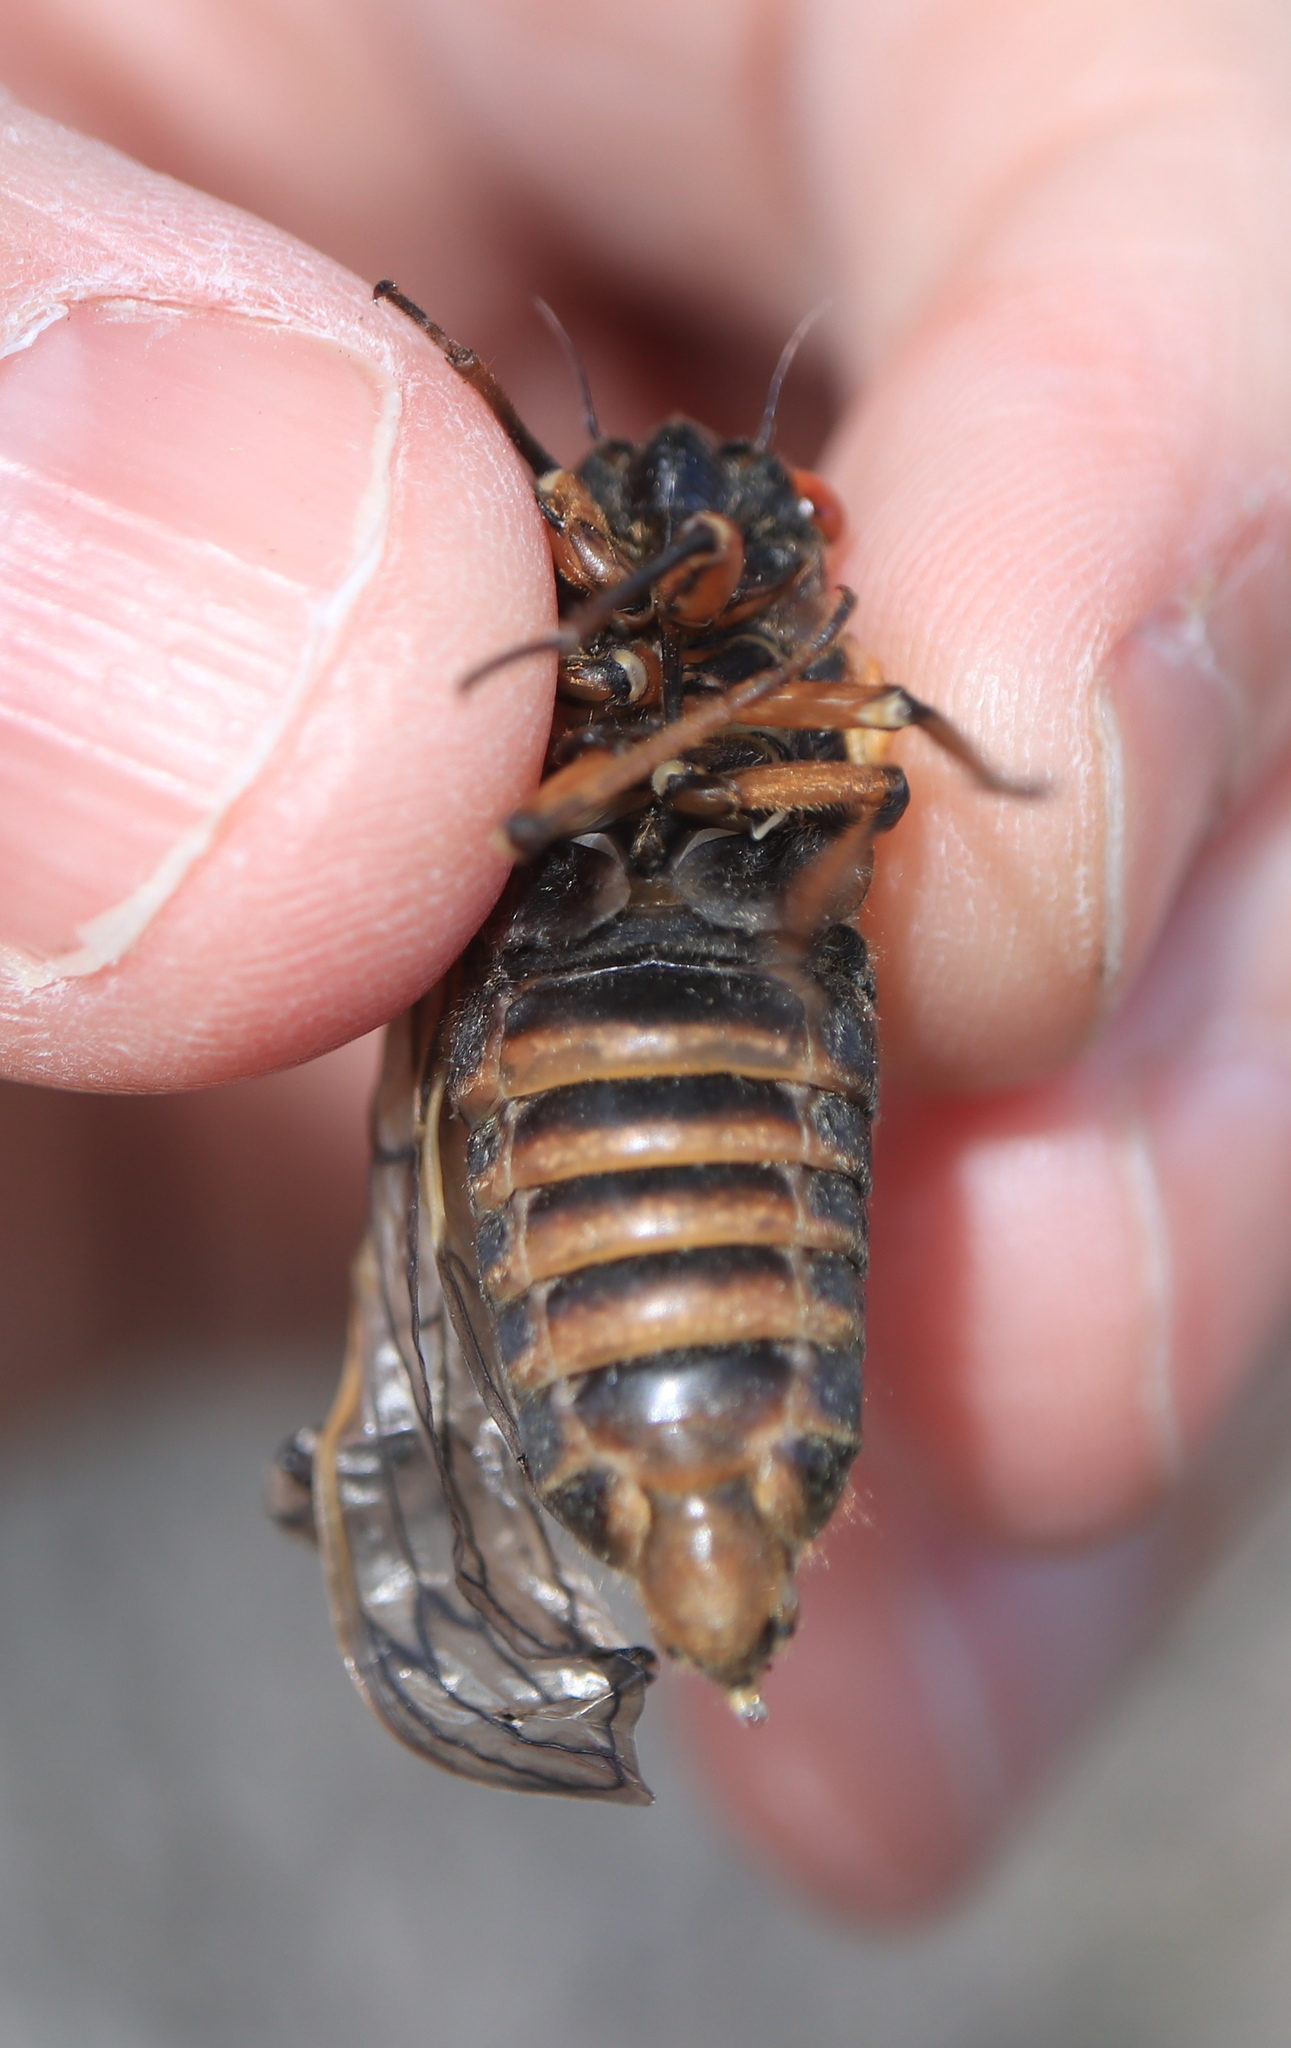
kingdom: Animalia
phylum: Arthropoda
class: Insecta
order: Hemiptera
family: Cicadidae
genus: Magicicada
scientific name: Magicicada septendecim
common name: Periodical cicada
